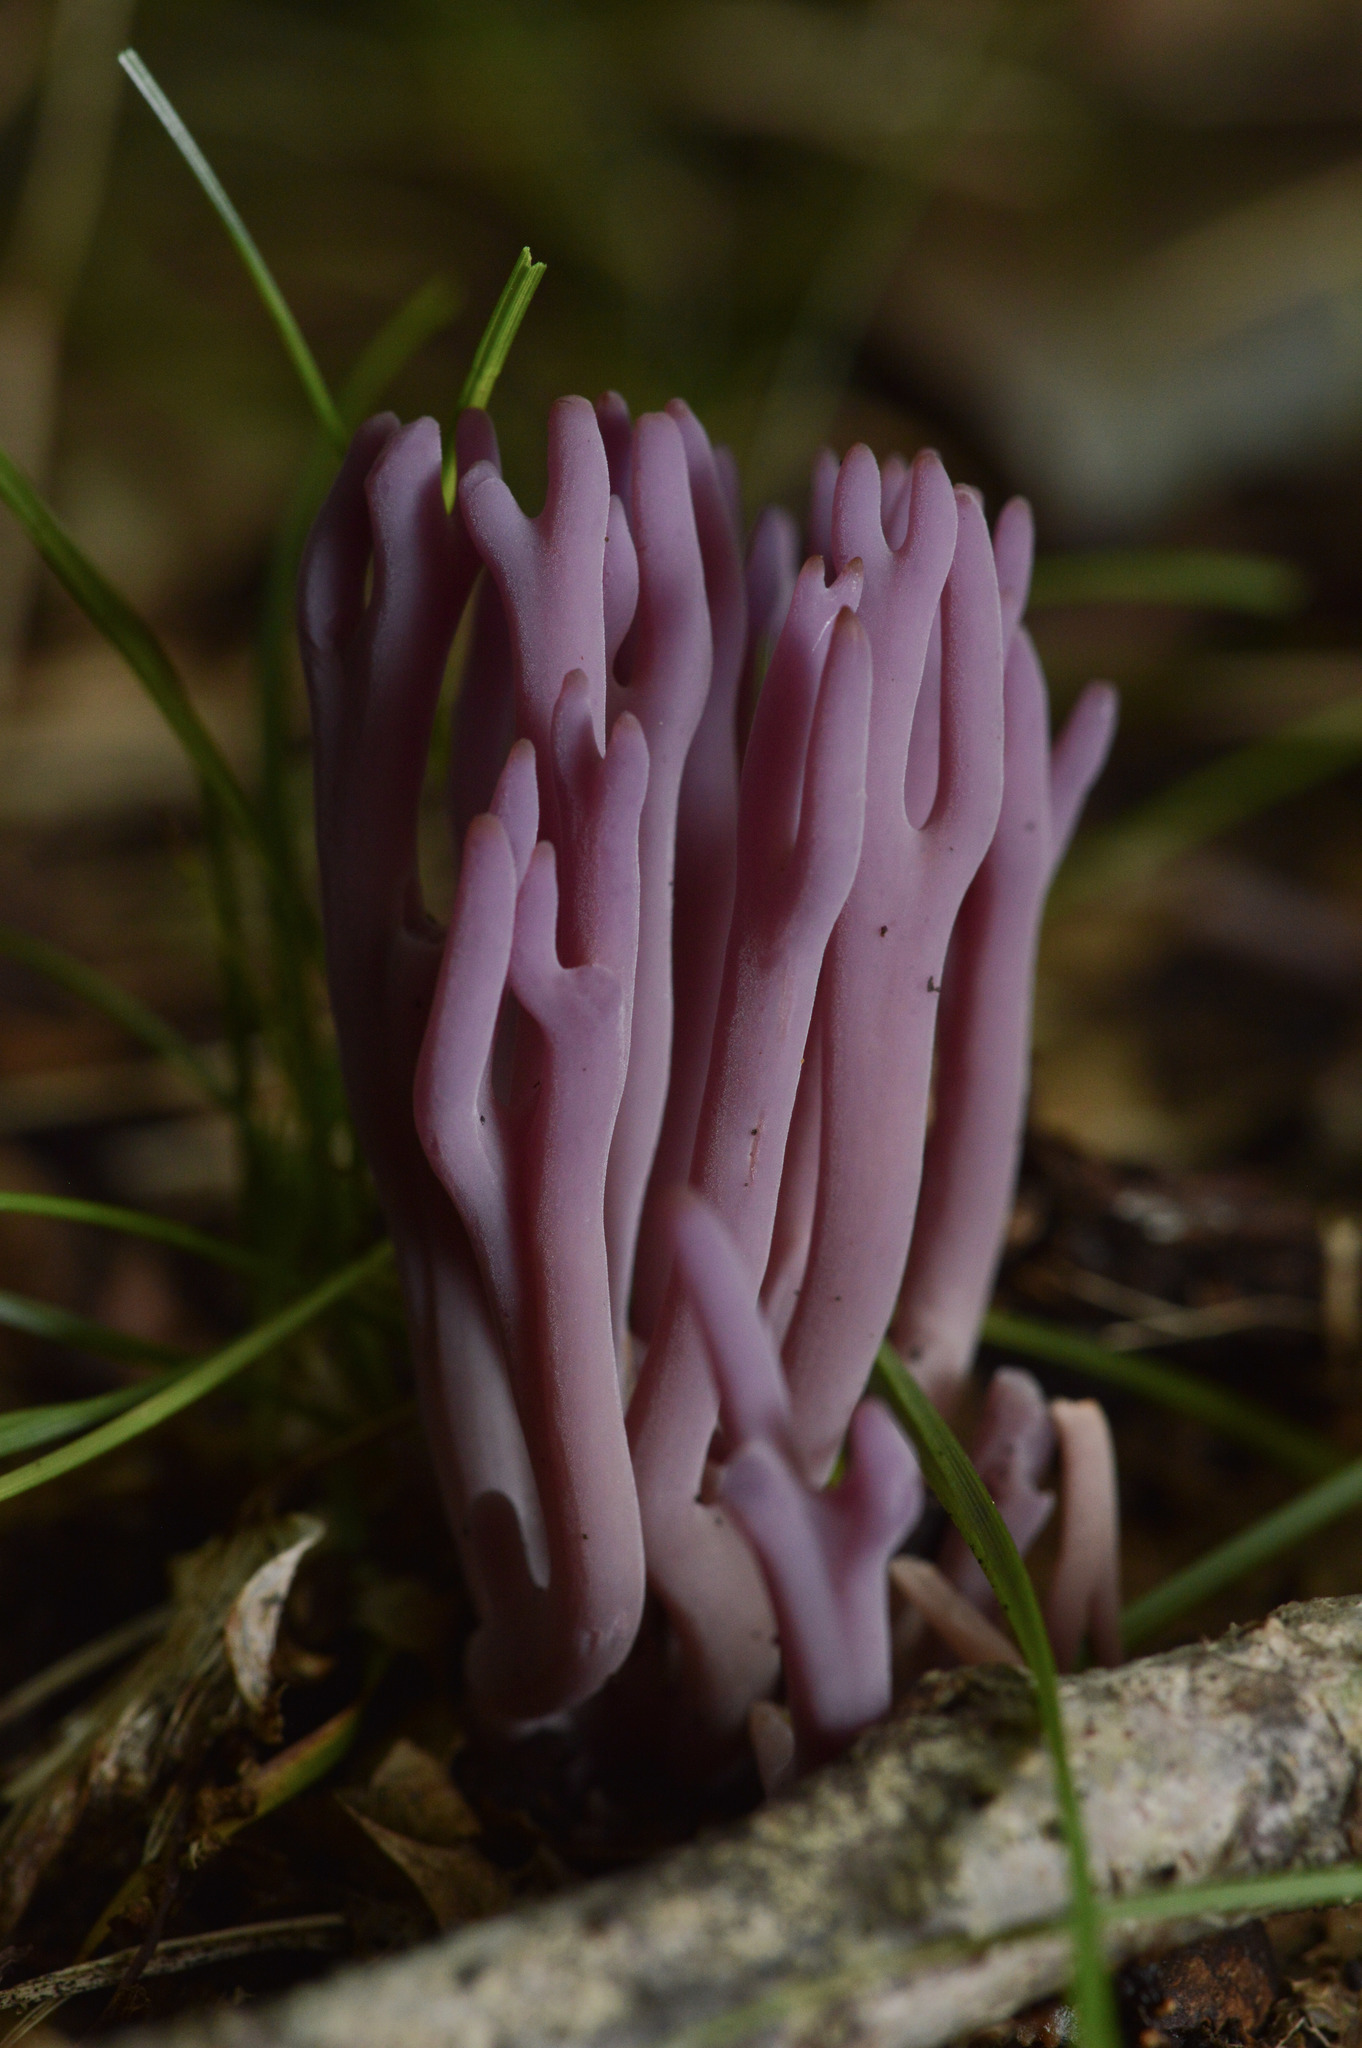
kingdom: Fungi
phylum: Basidiomycota
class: Agaricomycetes
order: Agaricales
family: Clavariaceae
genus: Clavaria
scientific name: Clavaria zollingeri
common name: Violet coral
